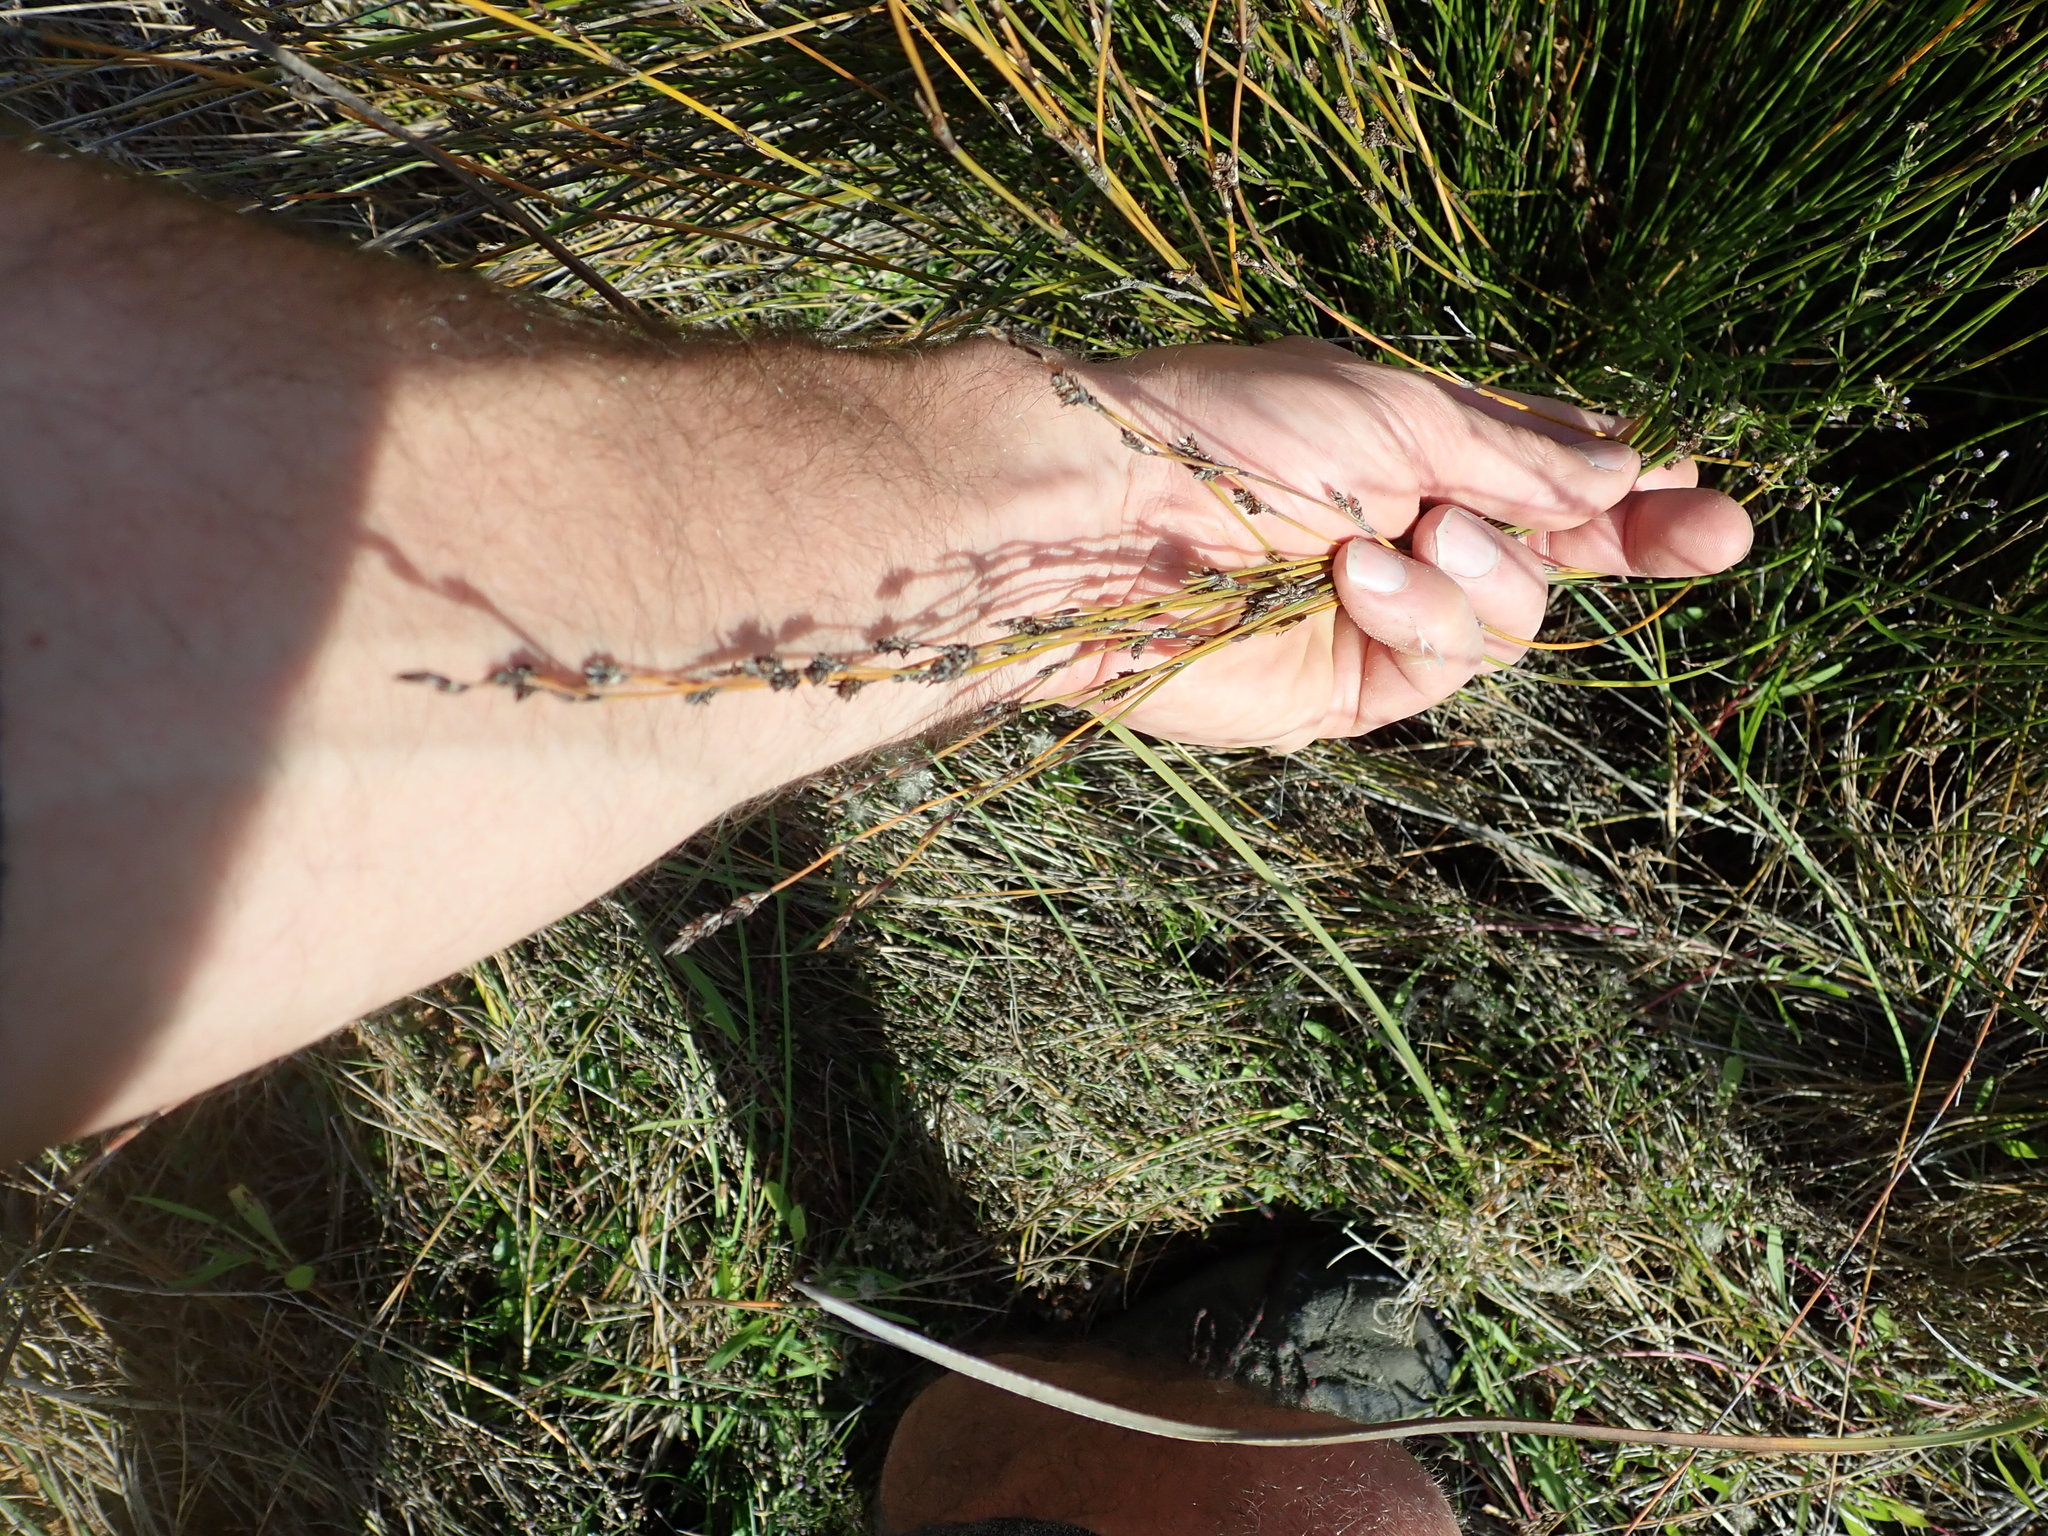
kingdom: Plantae
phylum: Tracheophyta
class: Liliopsida
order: Poales
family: Restionaceae
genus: Apodasmia
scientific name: Apodasmia similis
